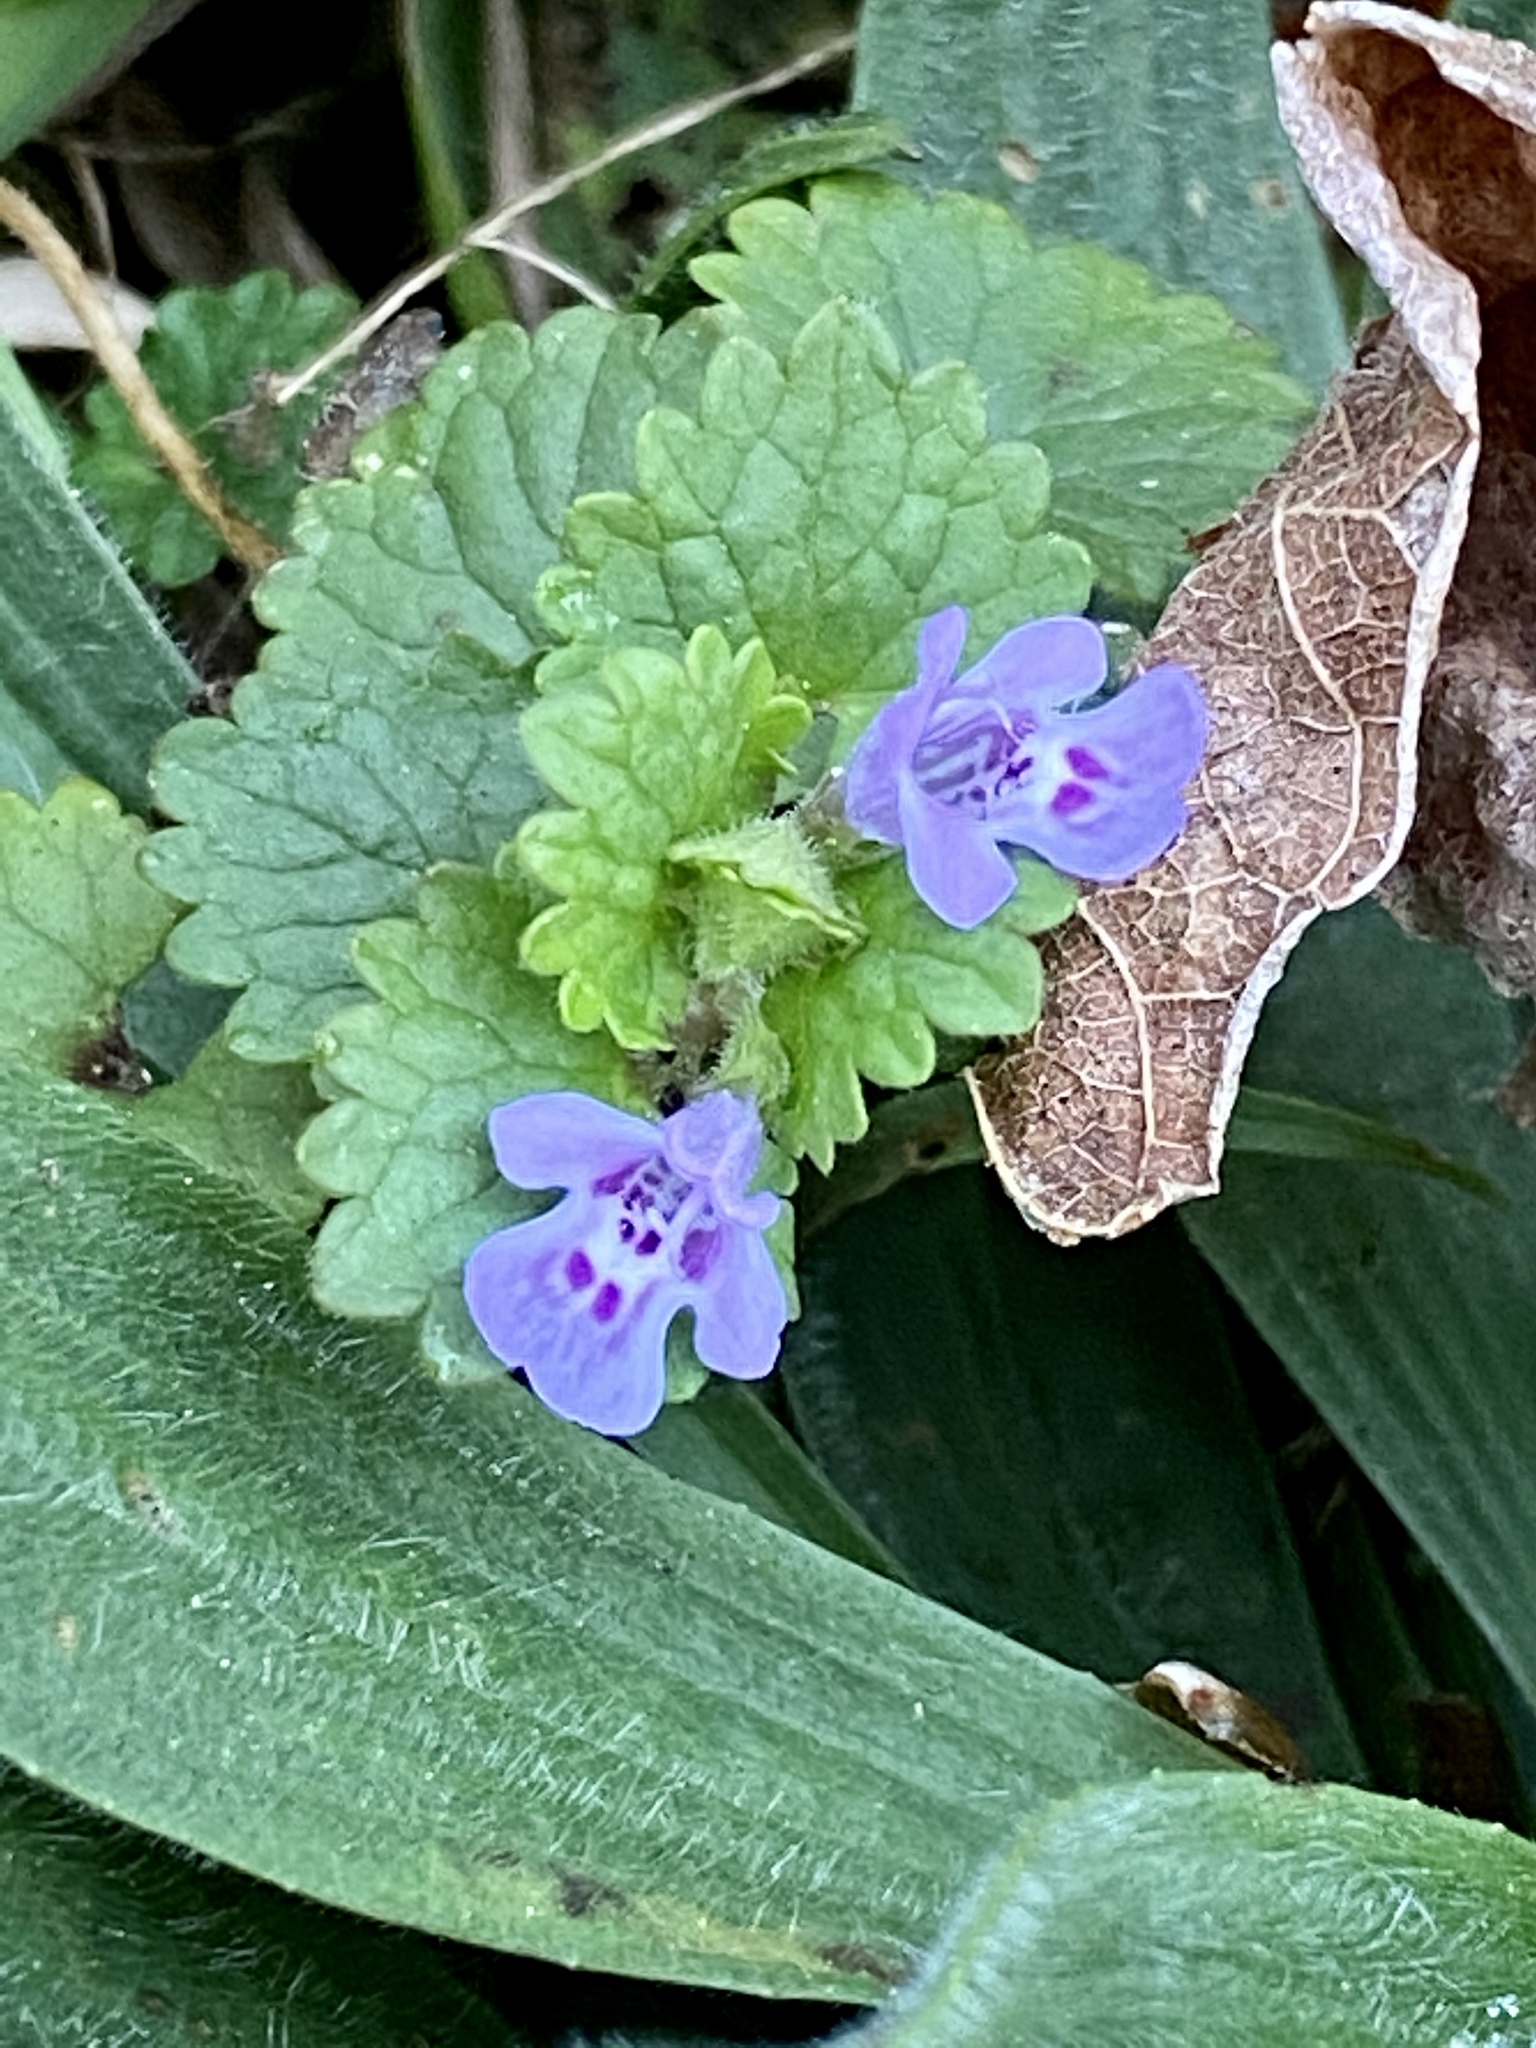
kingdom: Plantae
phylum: Tracheophyta
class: Magnoliopsida
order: Lamiales
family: Lamiaceae
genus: Glechoma
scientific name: Glechoma hederacea
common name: Ground ivy
